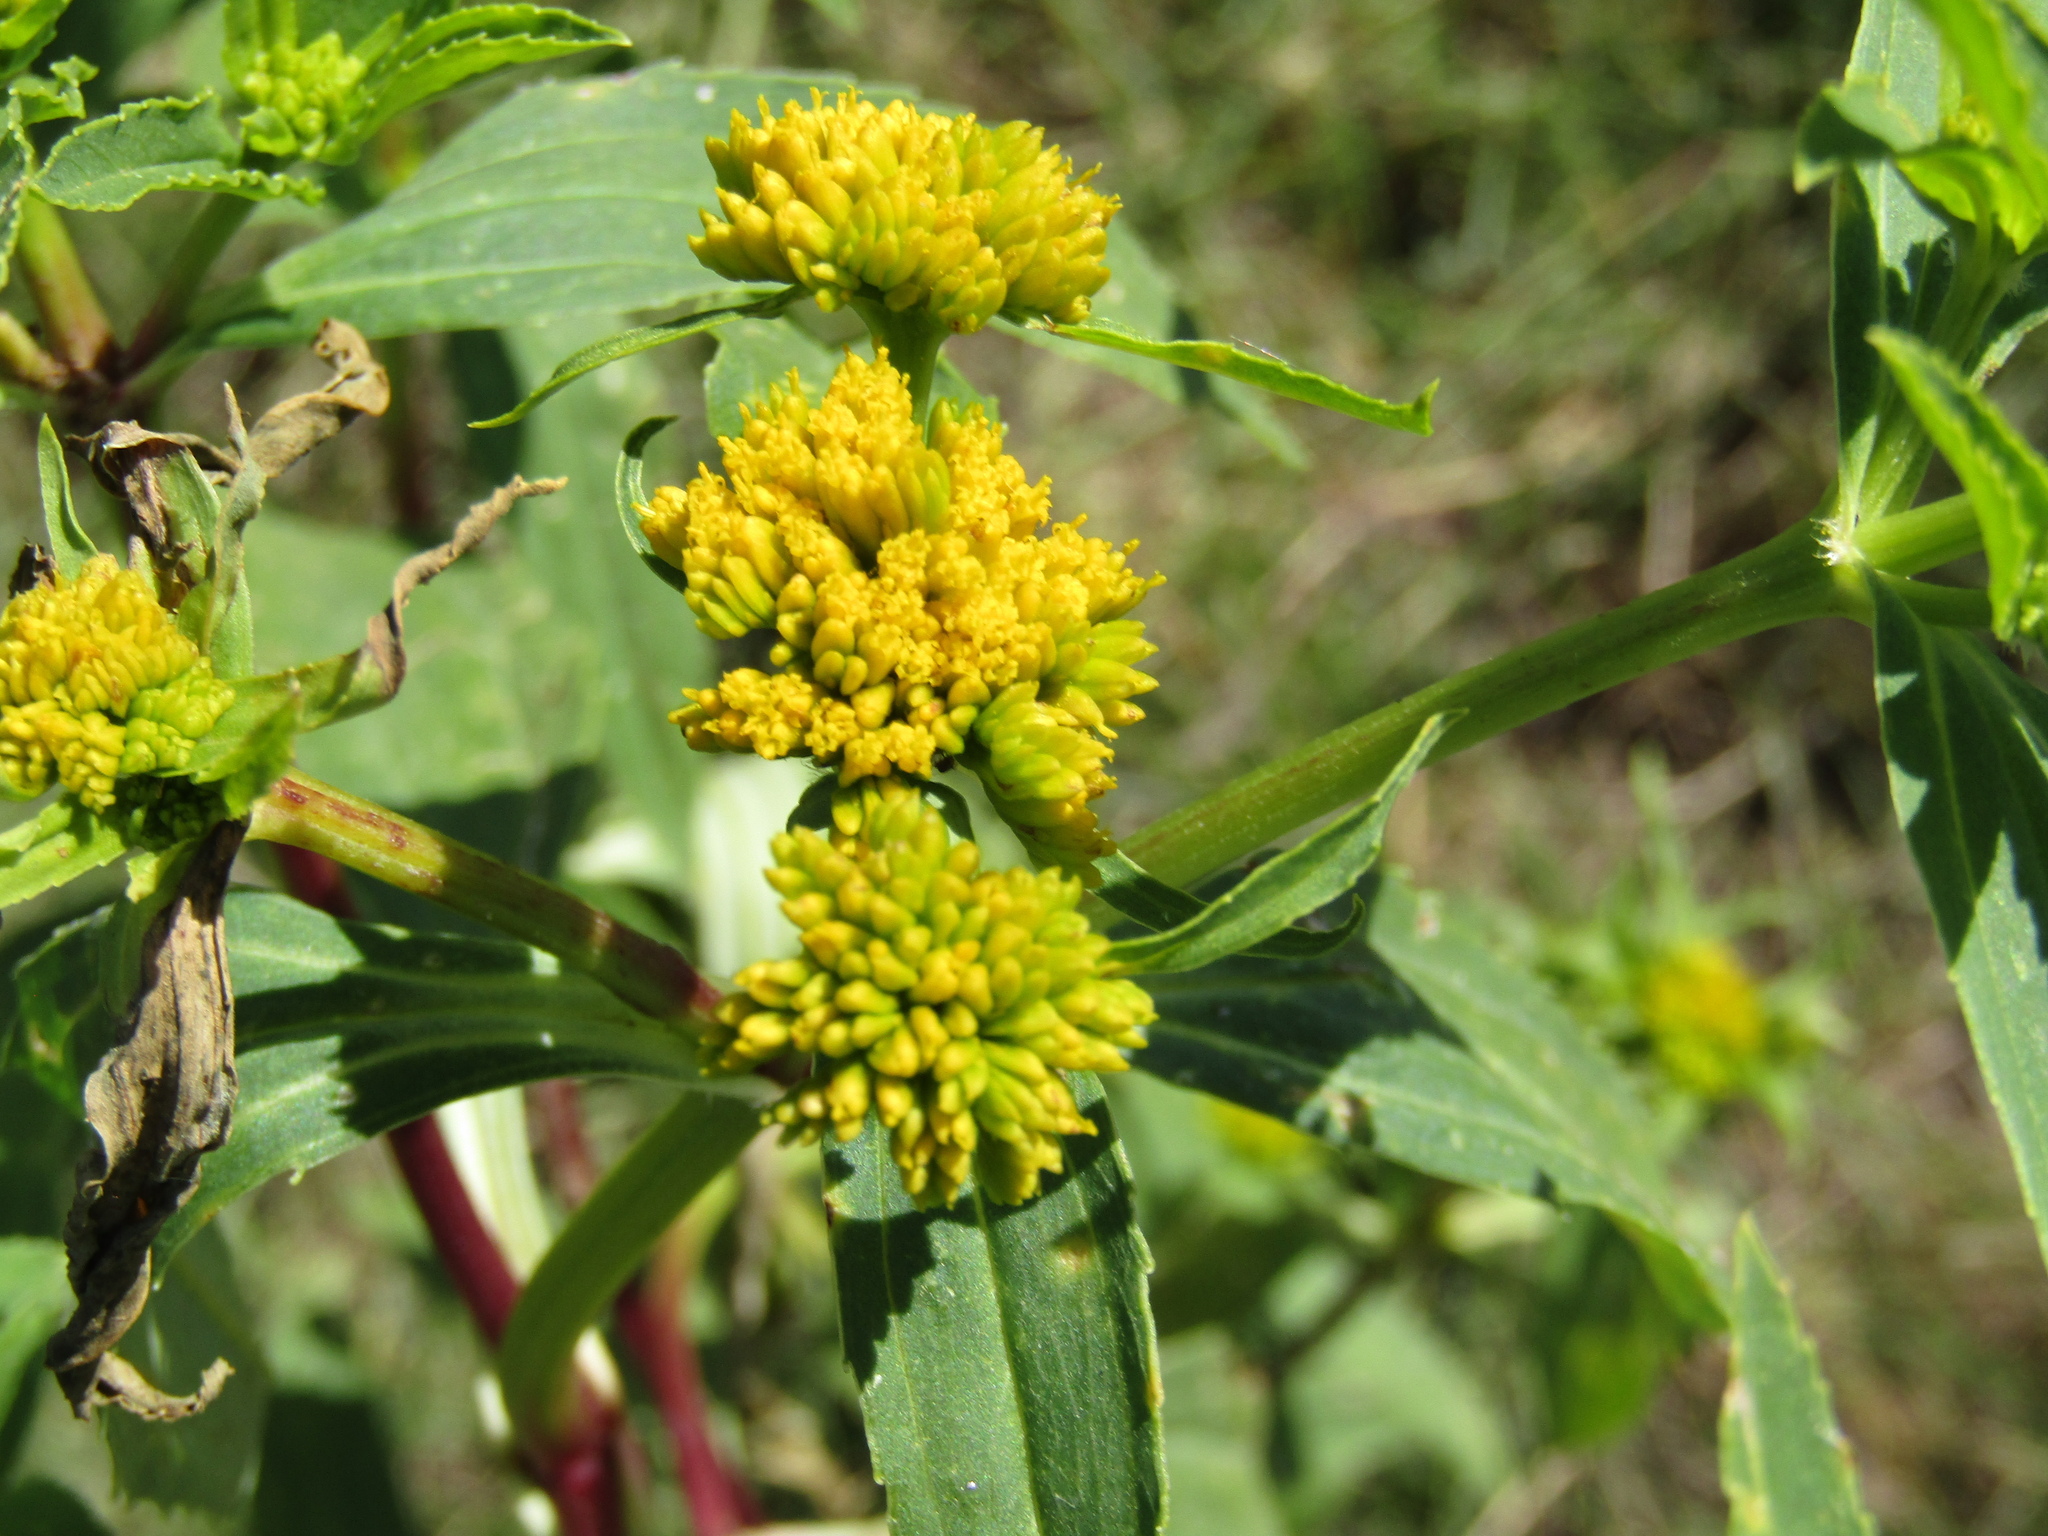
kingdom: Plantae
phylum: Tracheophyta
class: Magnoliopsida
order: Asterales
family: Asteraceae
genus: Flaveria
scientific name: Flaveria bidentis
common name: Coastal plain yellowtops
